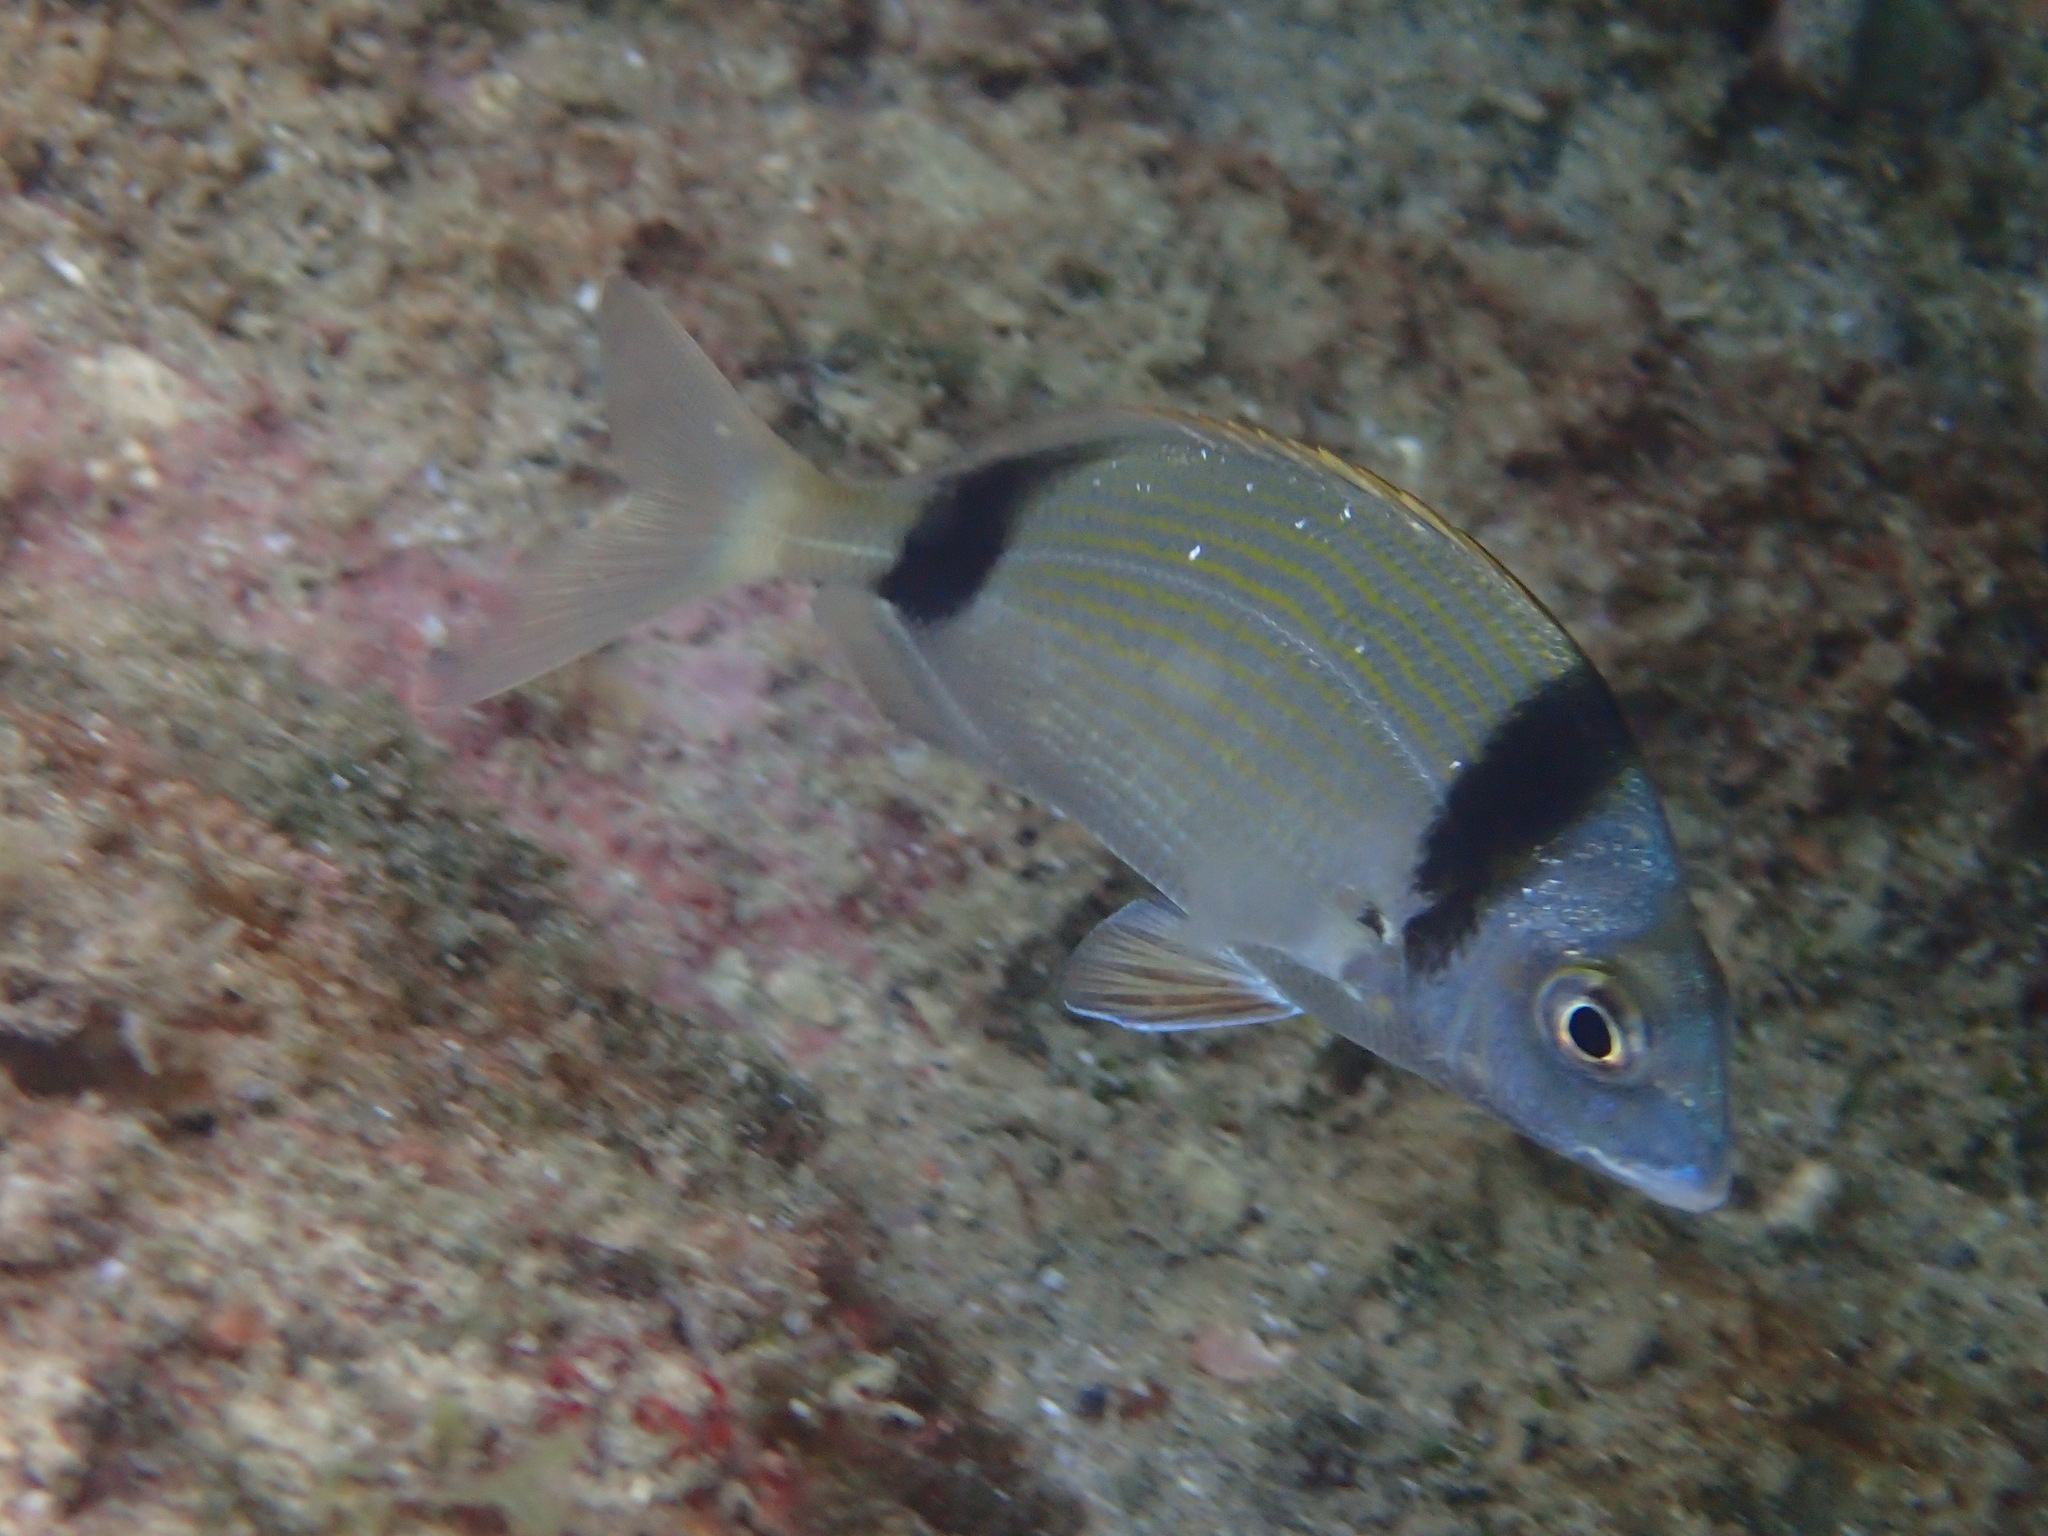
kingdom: Animalia
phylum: Chordata
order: Perciformes
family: Sparidae
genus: Diplodus
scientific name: Diplodus vulgaris
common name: Common two-banded seabream
